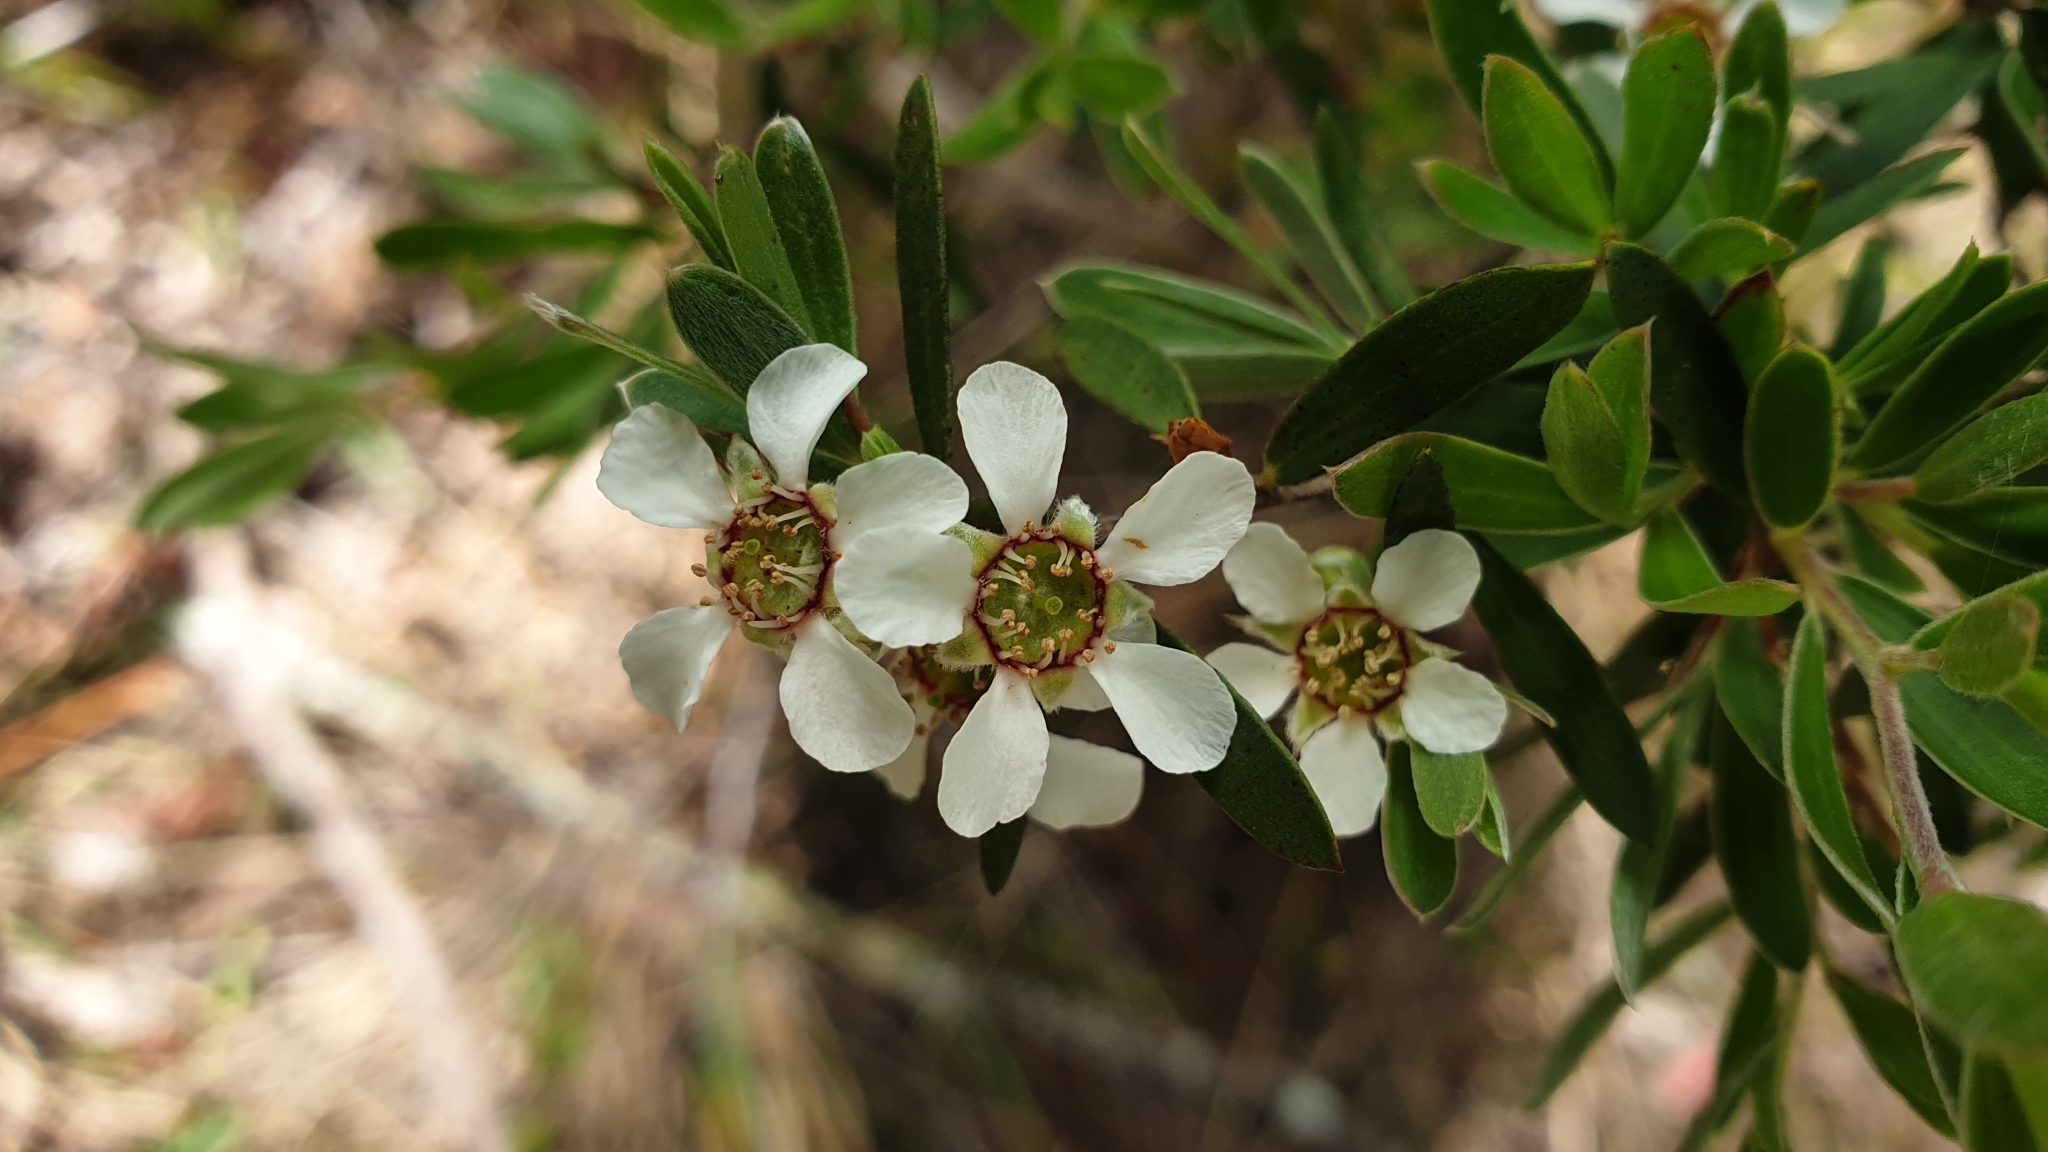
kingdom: Plantae
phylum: Tracheophyta
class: Magnoliopsida
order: Myrtales
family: Myrtaceae
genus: Leptospermum
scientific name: Leptospermum trinervium
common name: Flaky-barked tea-tree
